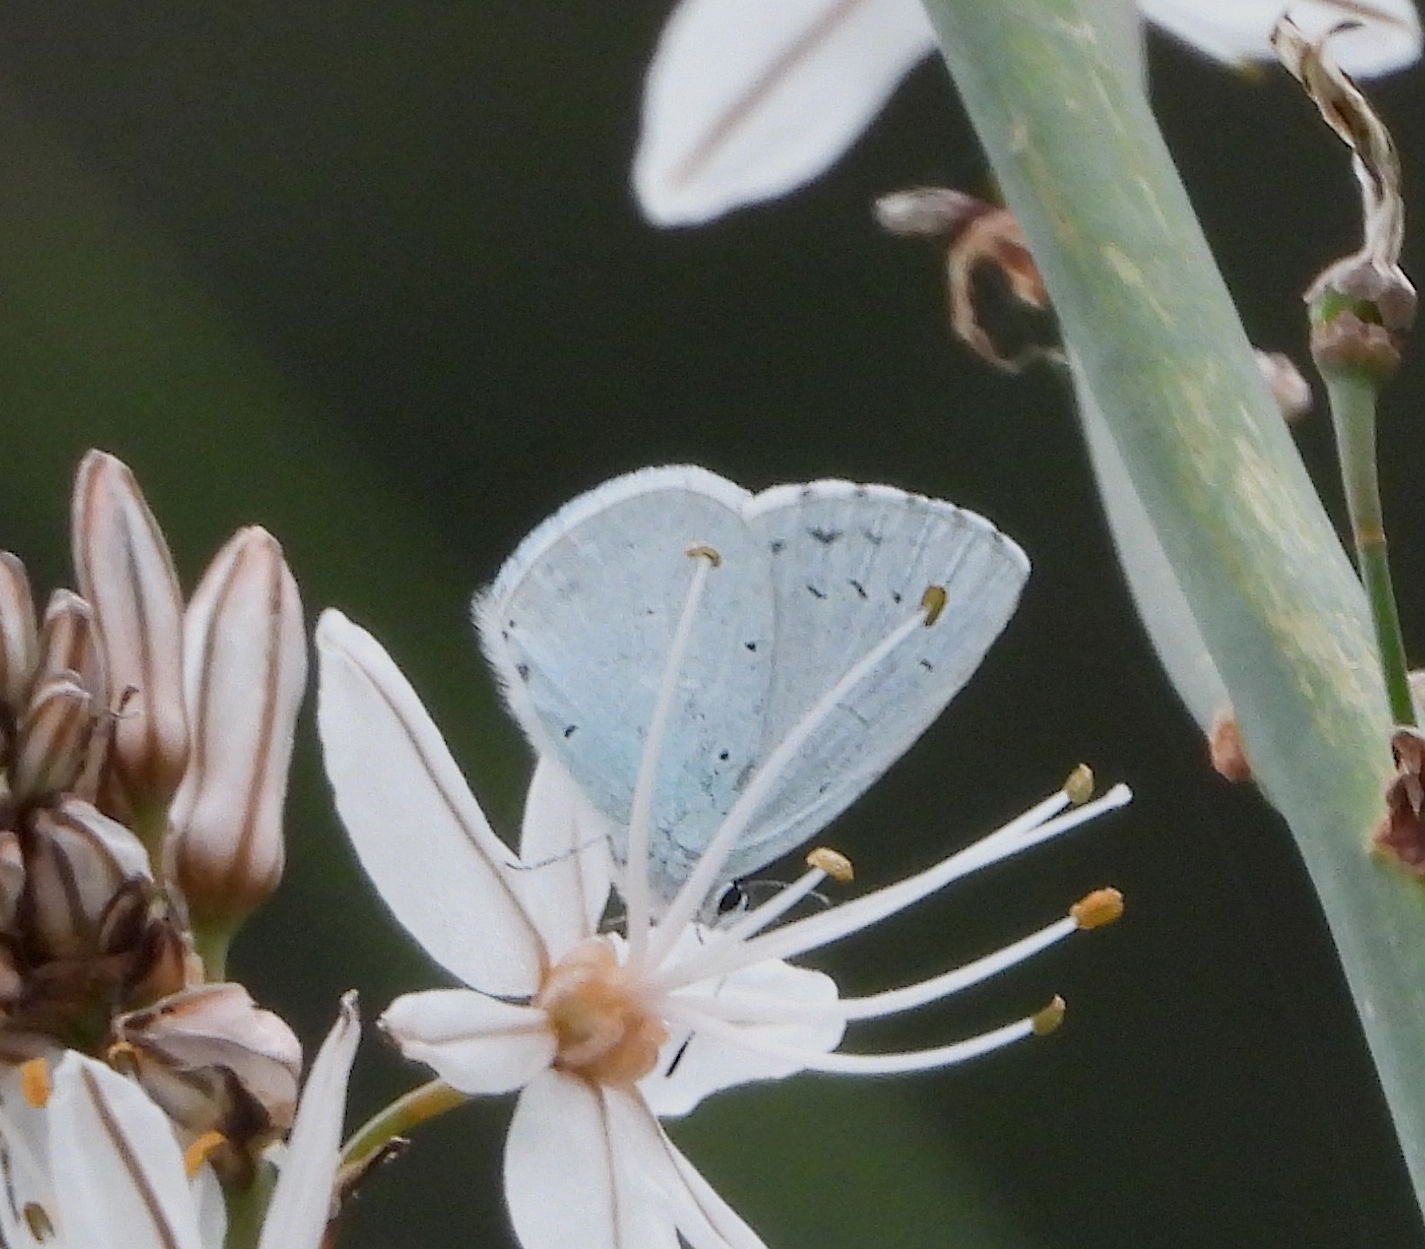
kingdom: Animalia
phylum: Arthropoda
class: Insecta
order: Lepidoptera
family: Lycaenidae
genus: Celastrina
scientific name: Celastrina argiolus
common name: Holly blue
